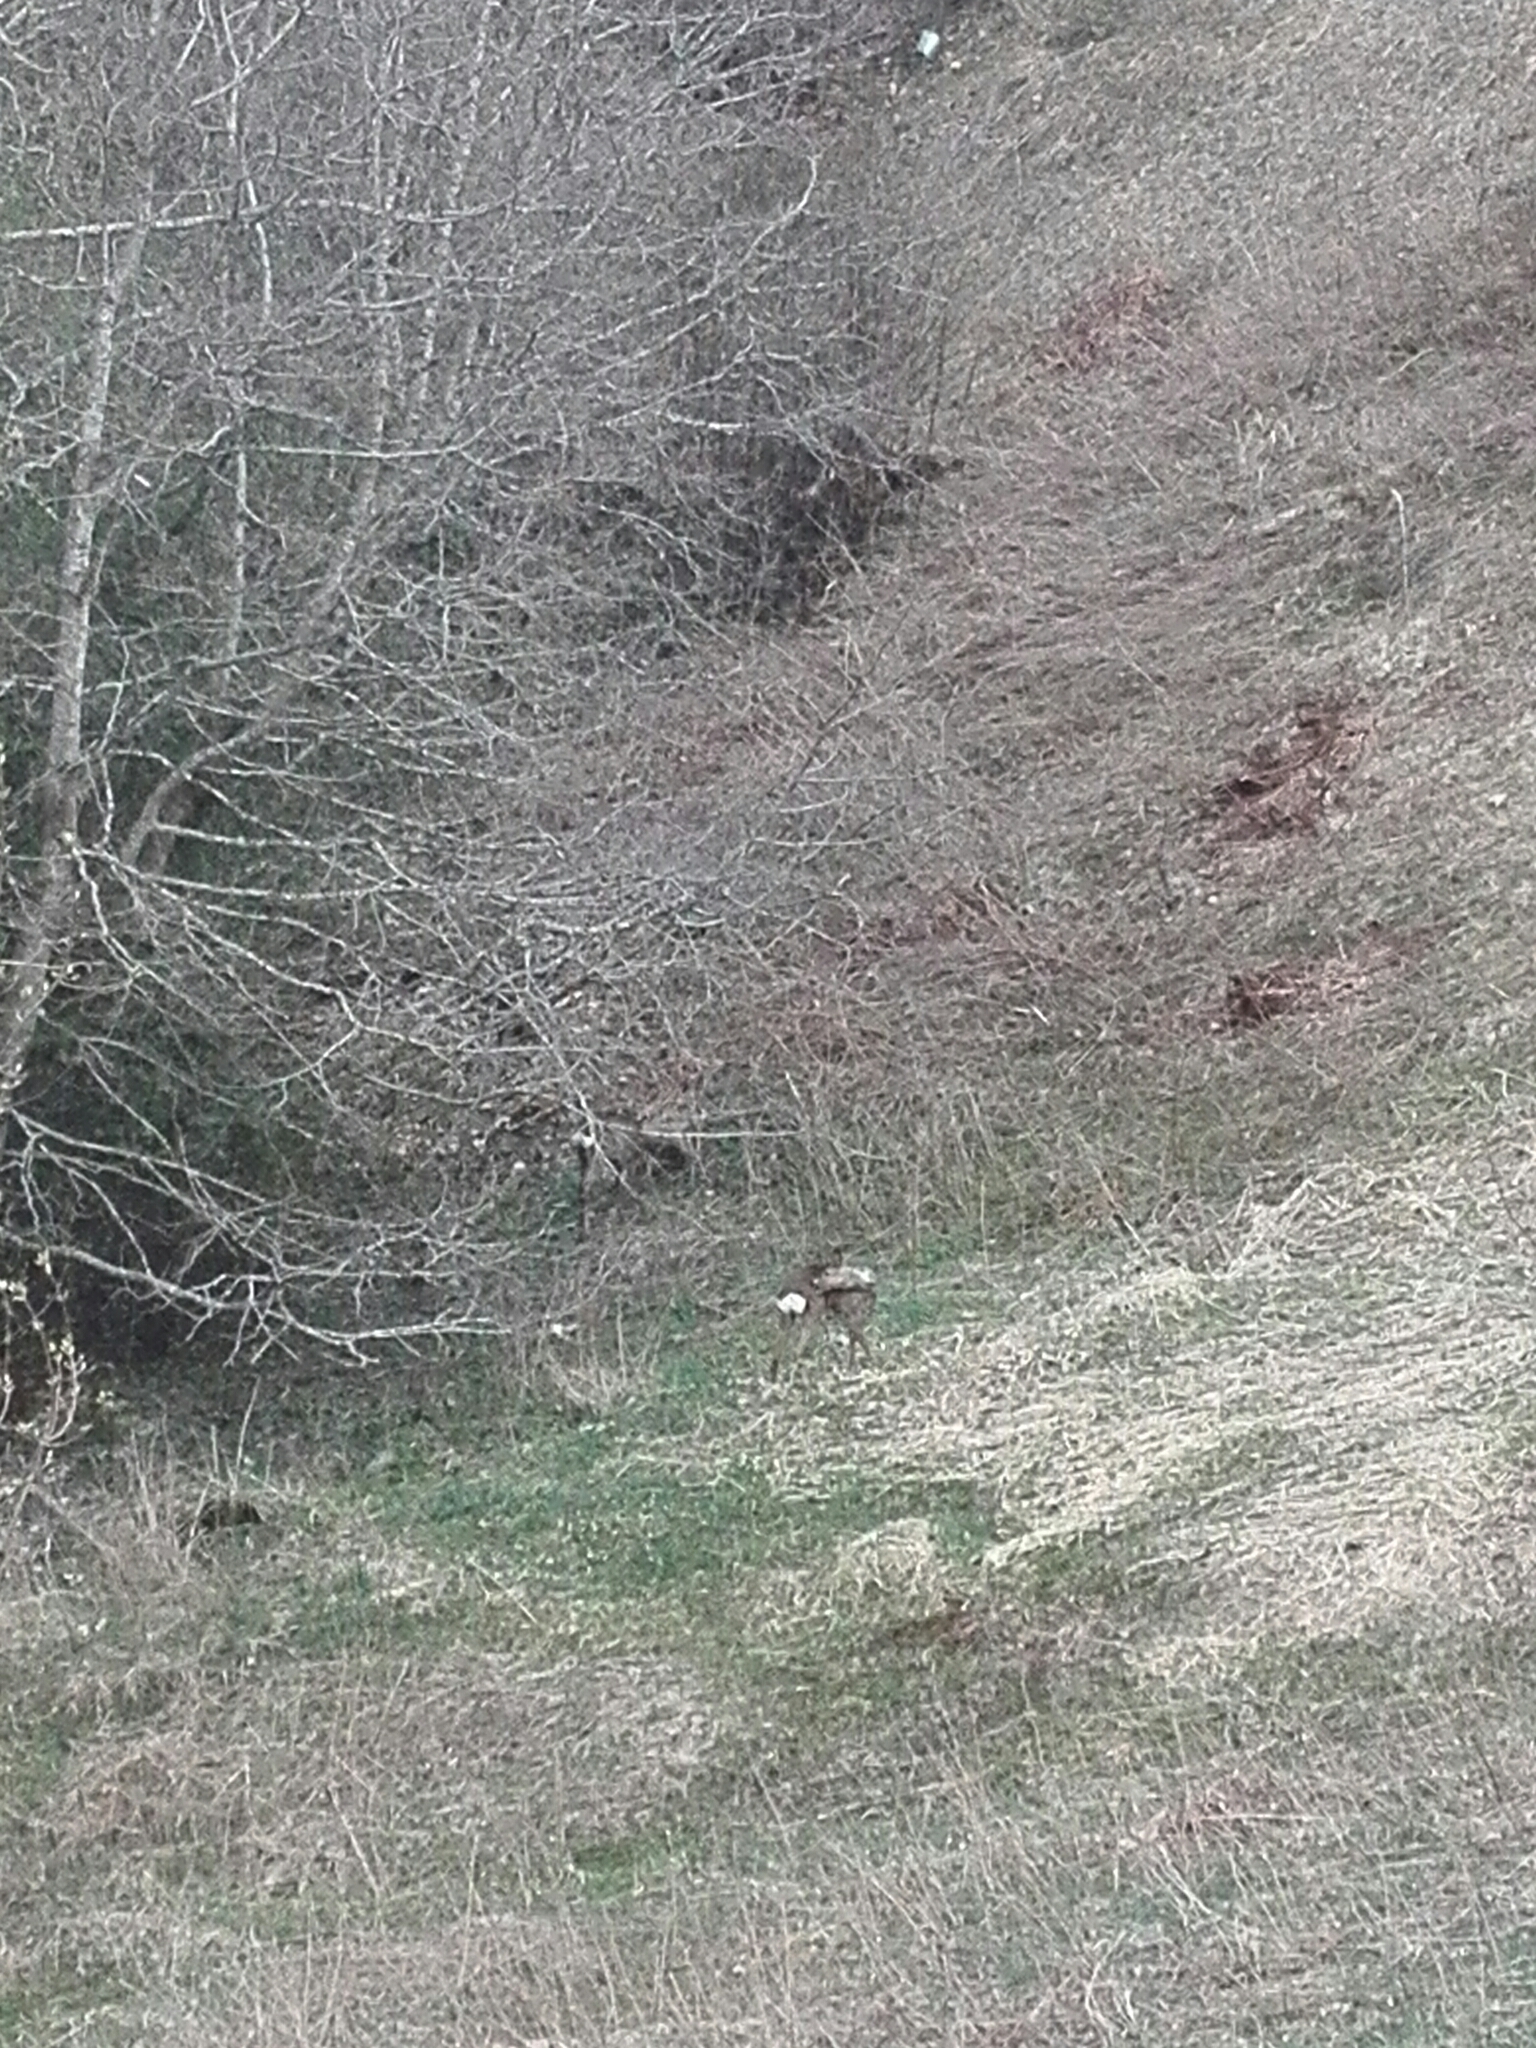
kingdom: Animalia
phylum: Chordata
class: Mammalia
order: Artiodactyla
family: Cervidae
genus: Capreolus
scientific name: Capreolus capreolus
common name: Western roe deer
